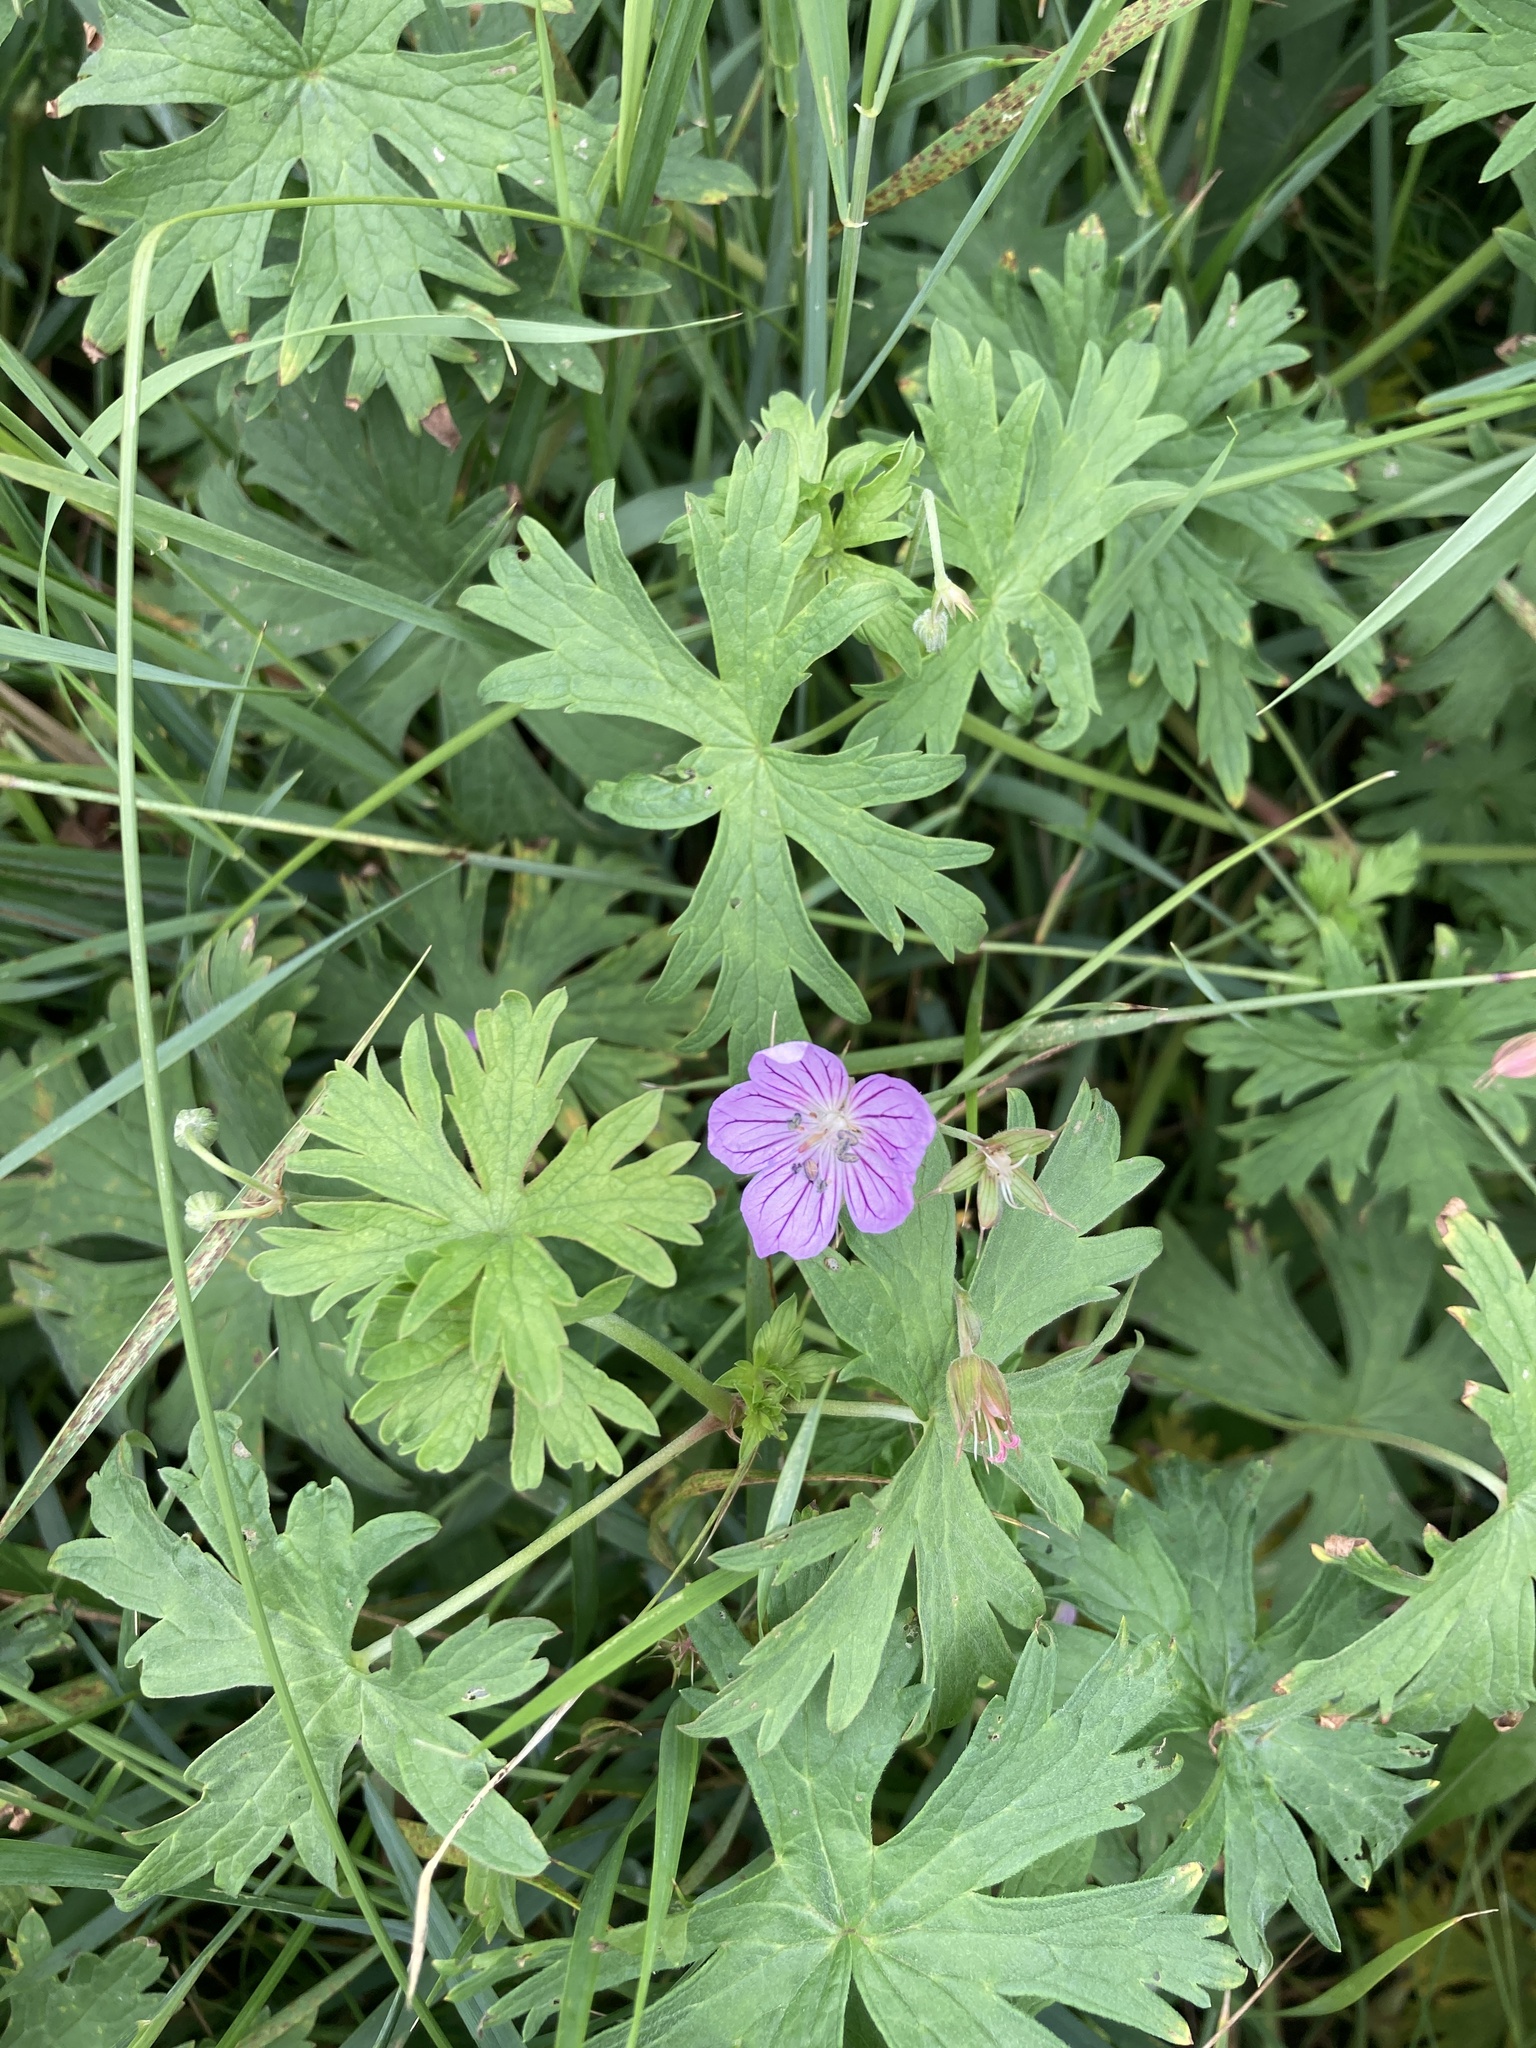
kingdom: Plantae
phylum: Tracheophyta
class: Magnoliopsida
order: Geraniales
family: Geraniaceae
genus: Geranium
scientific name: Geranium collinum
